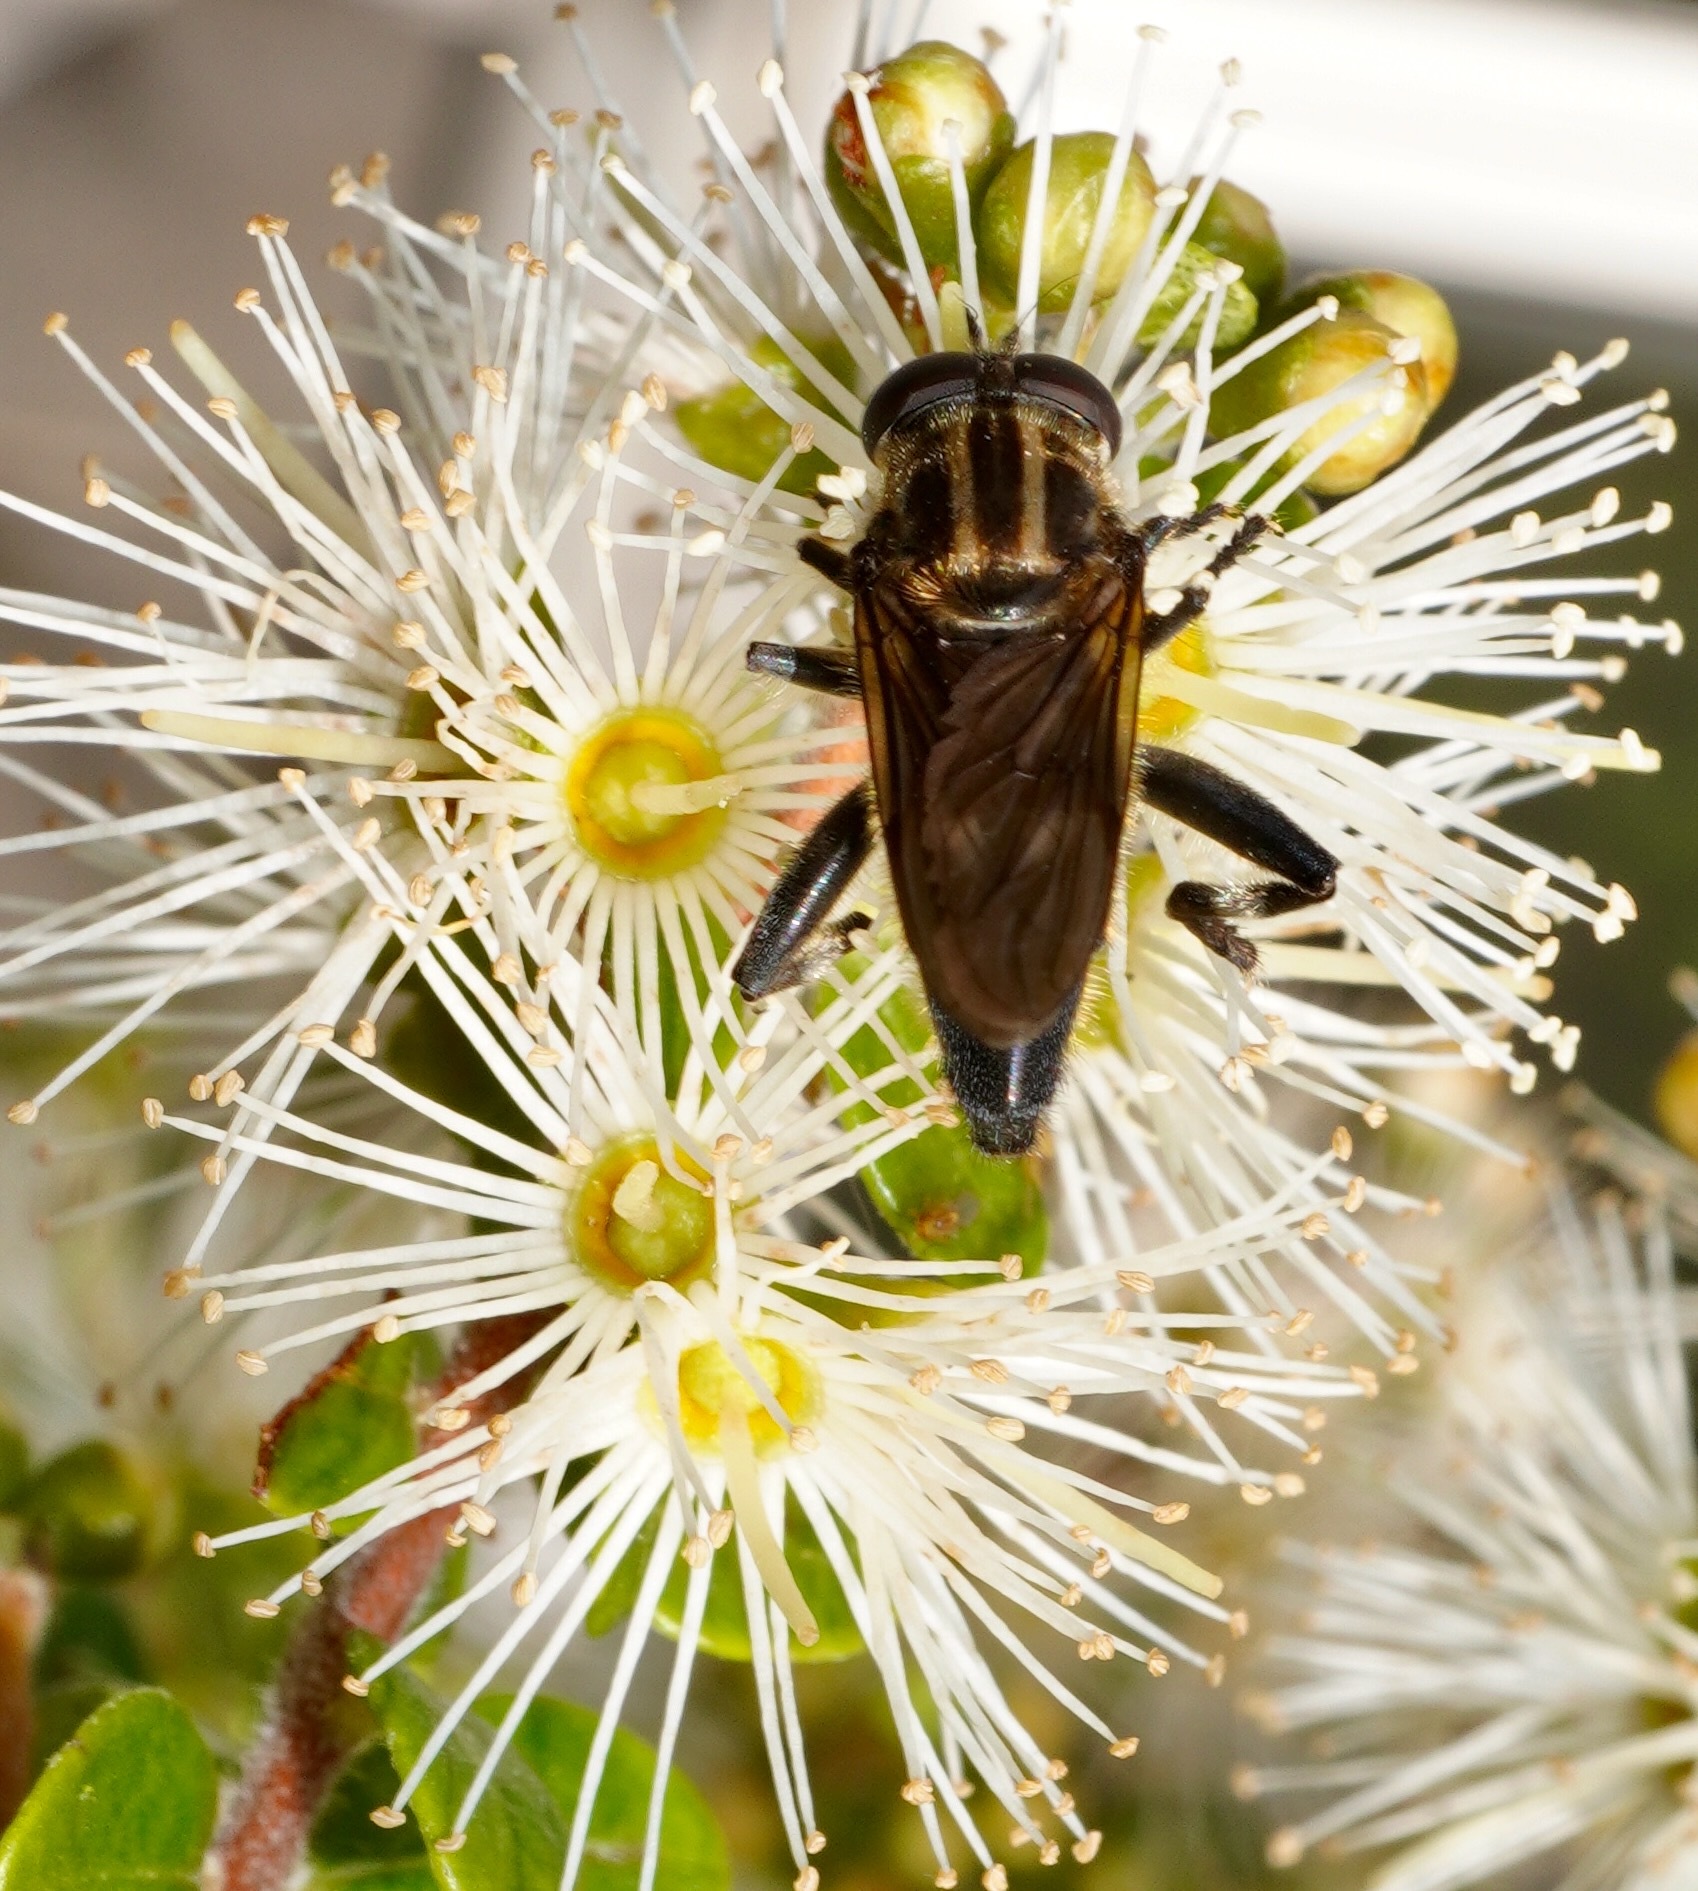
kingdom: Animalia
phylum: Arthropoda
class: Insecta
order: Diptera
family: Syrphidae
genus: Orthoprosopa
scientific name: Orthoprosopa bilineata
